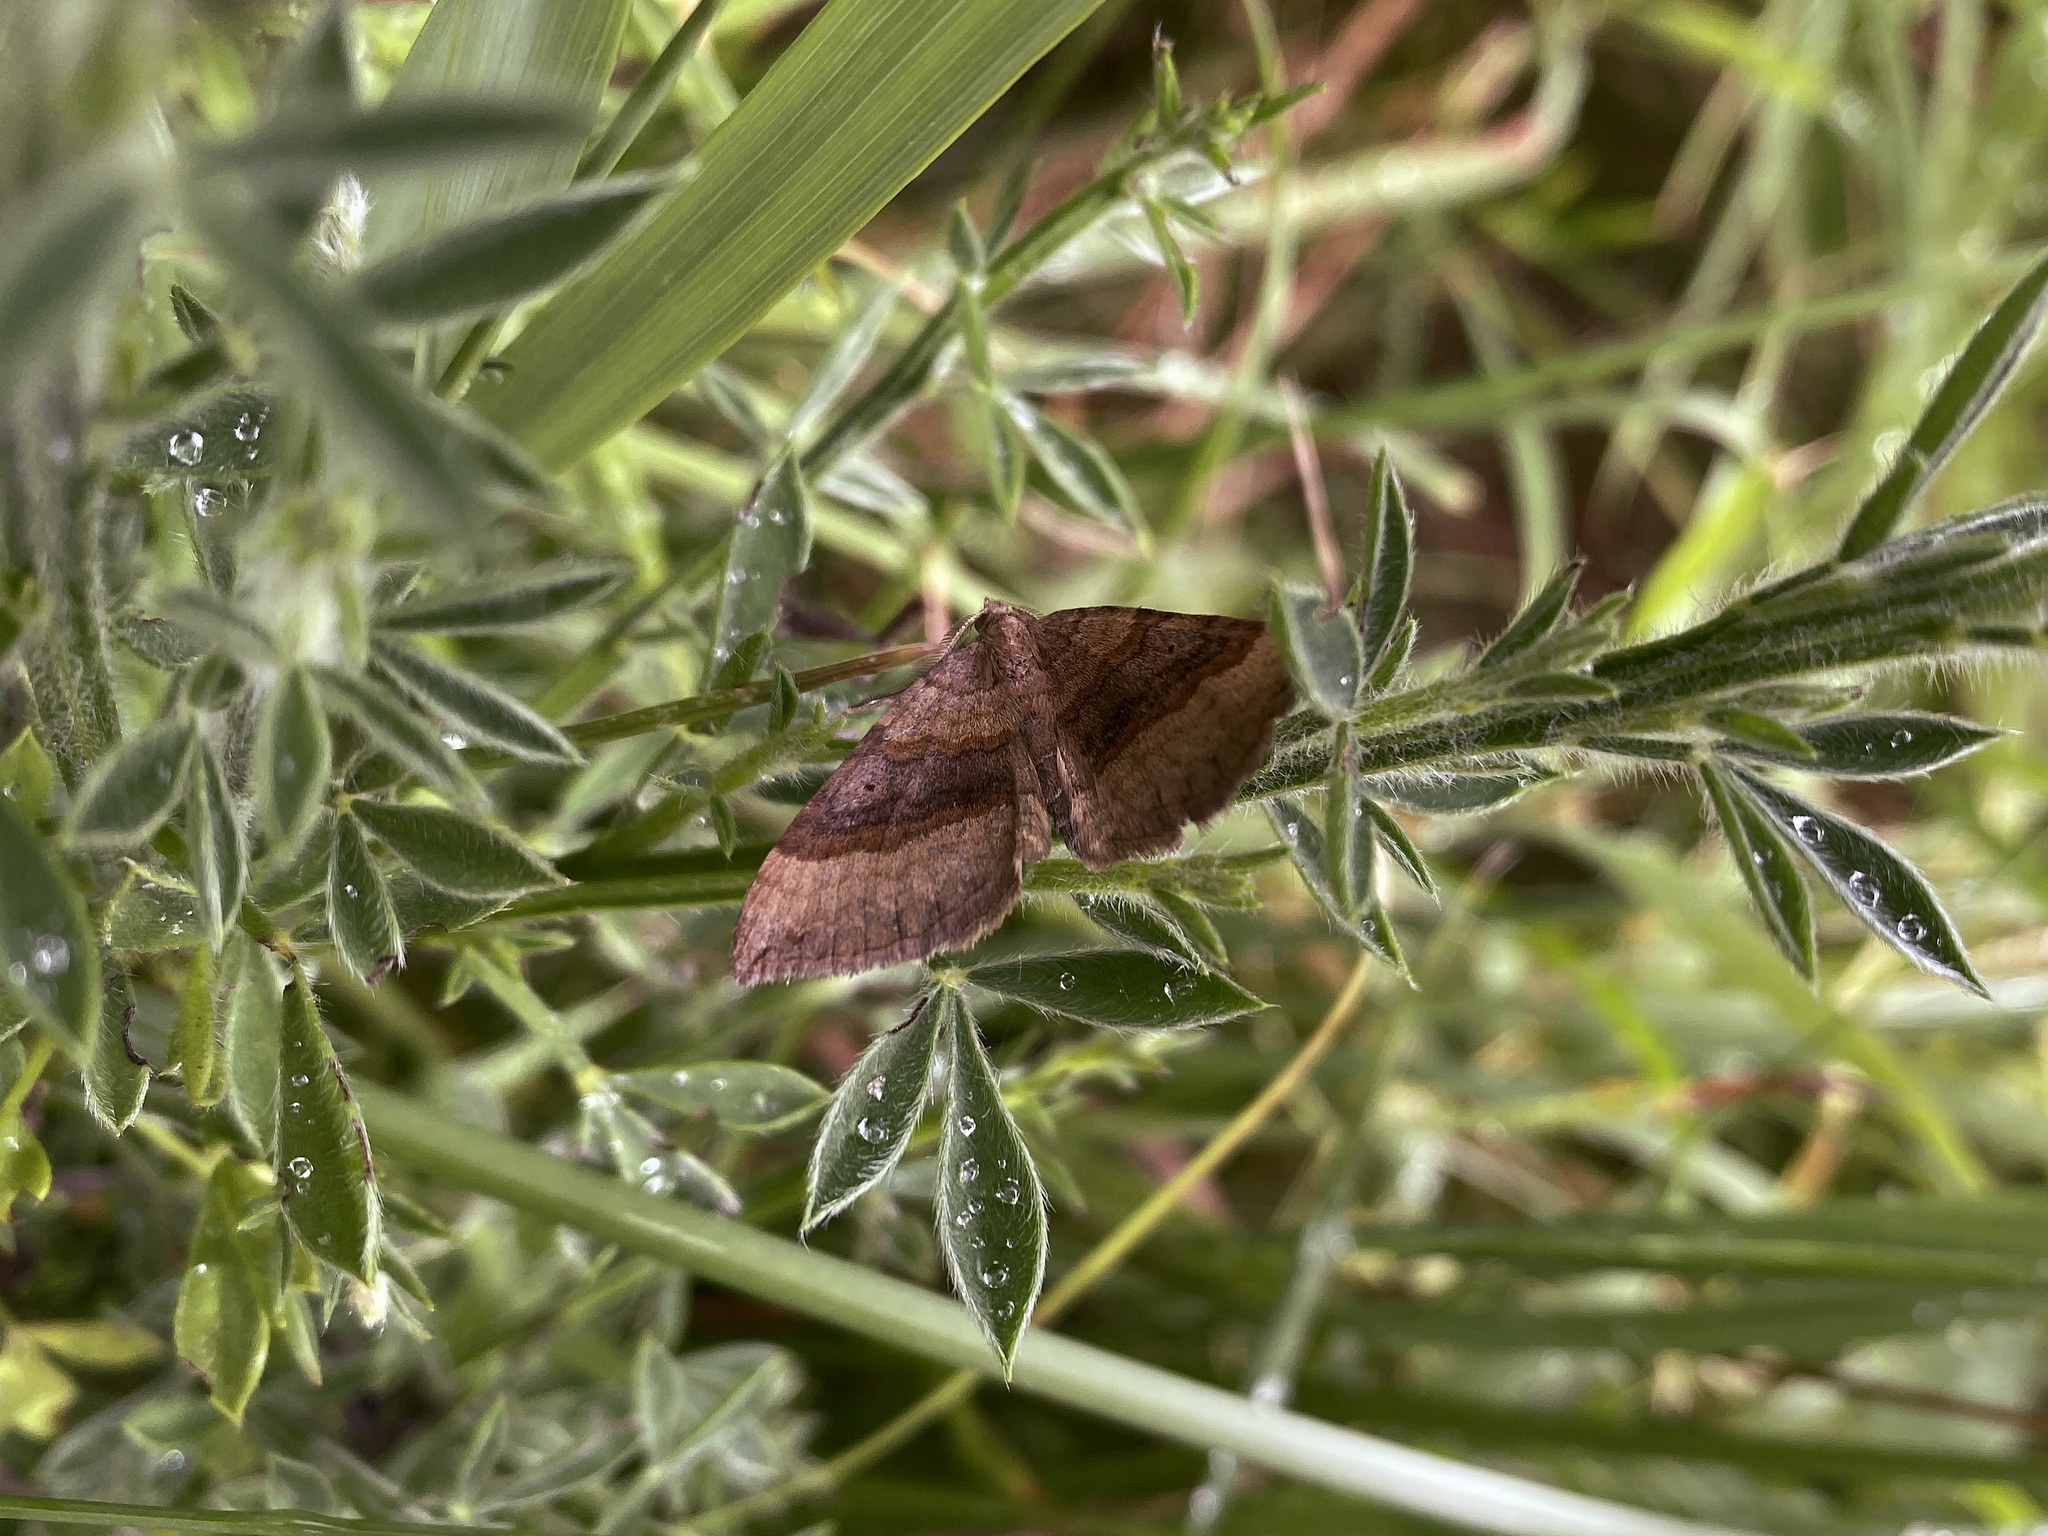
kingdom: Animalia
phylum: Arthropoda
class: Insecta
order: Lepidoptera
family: Geometridae
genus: Scotopteryx
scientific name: Scotopteryx chenopodiata
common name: Shaded broad-bar
